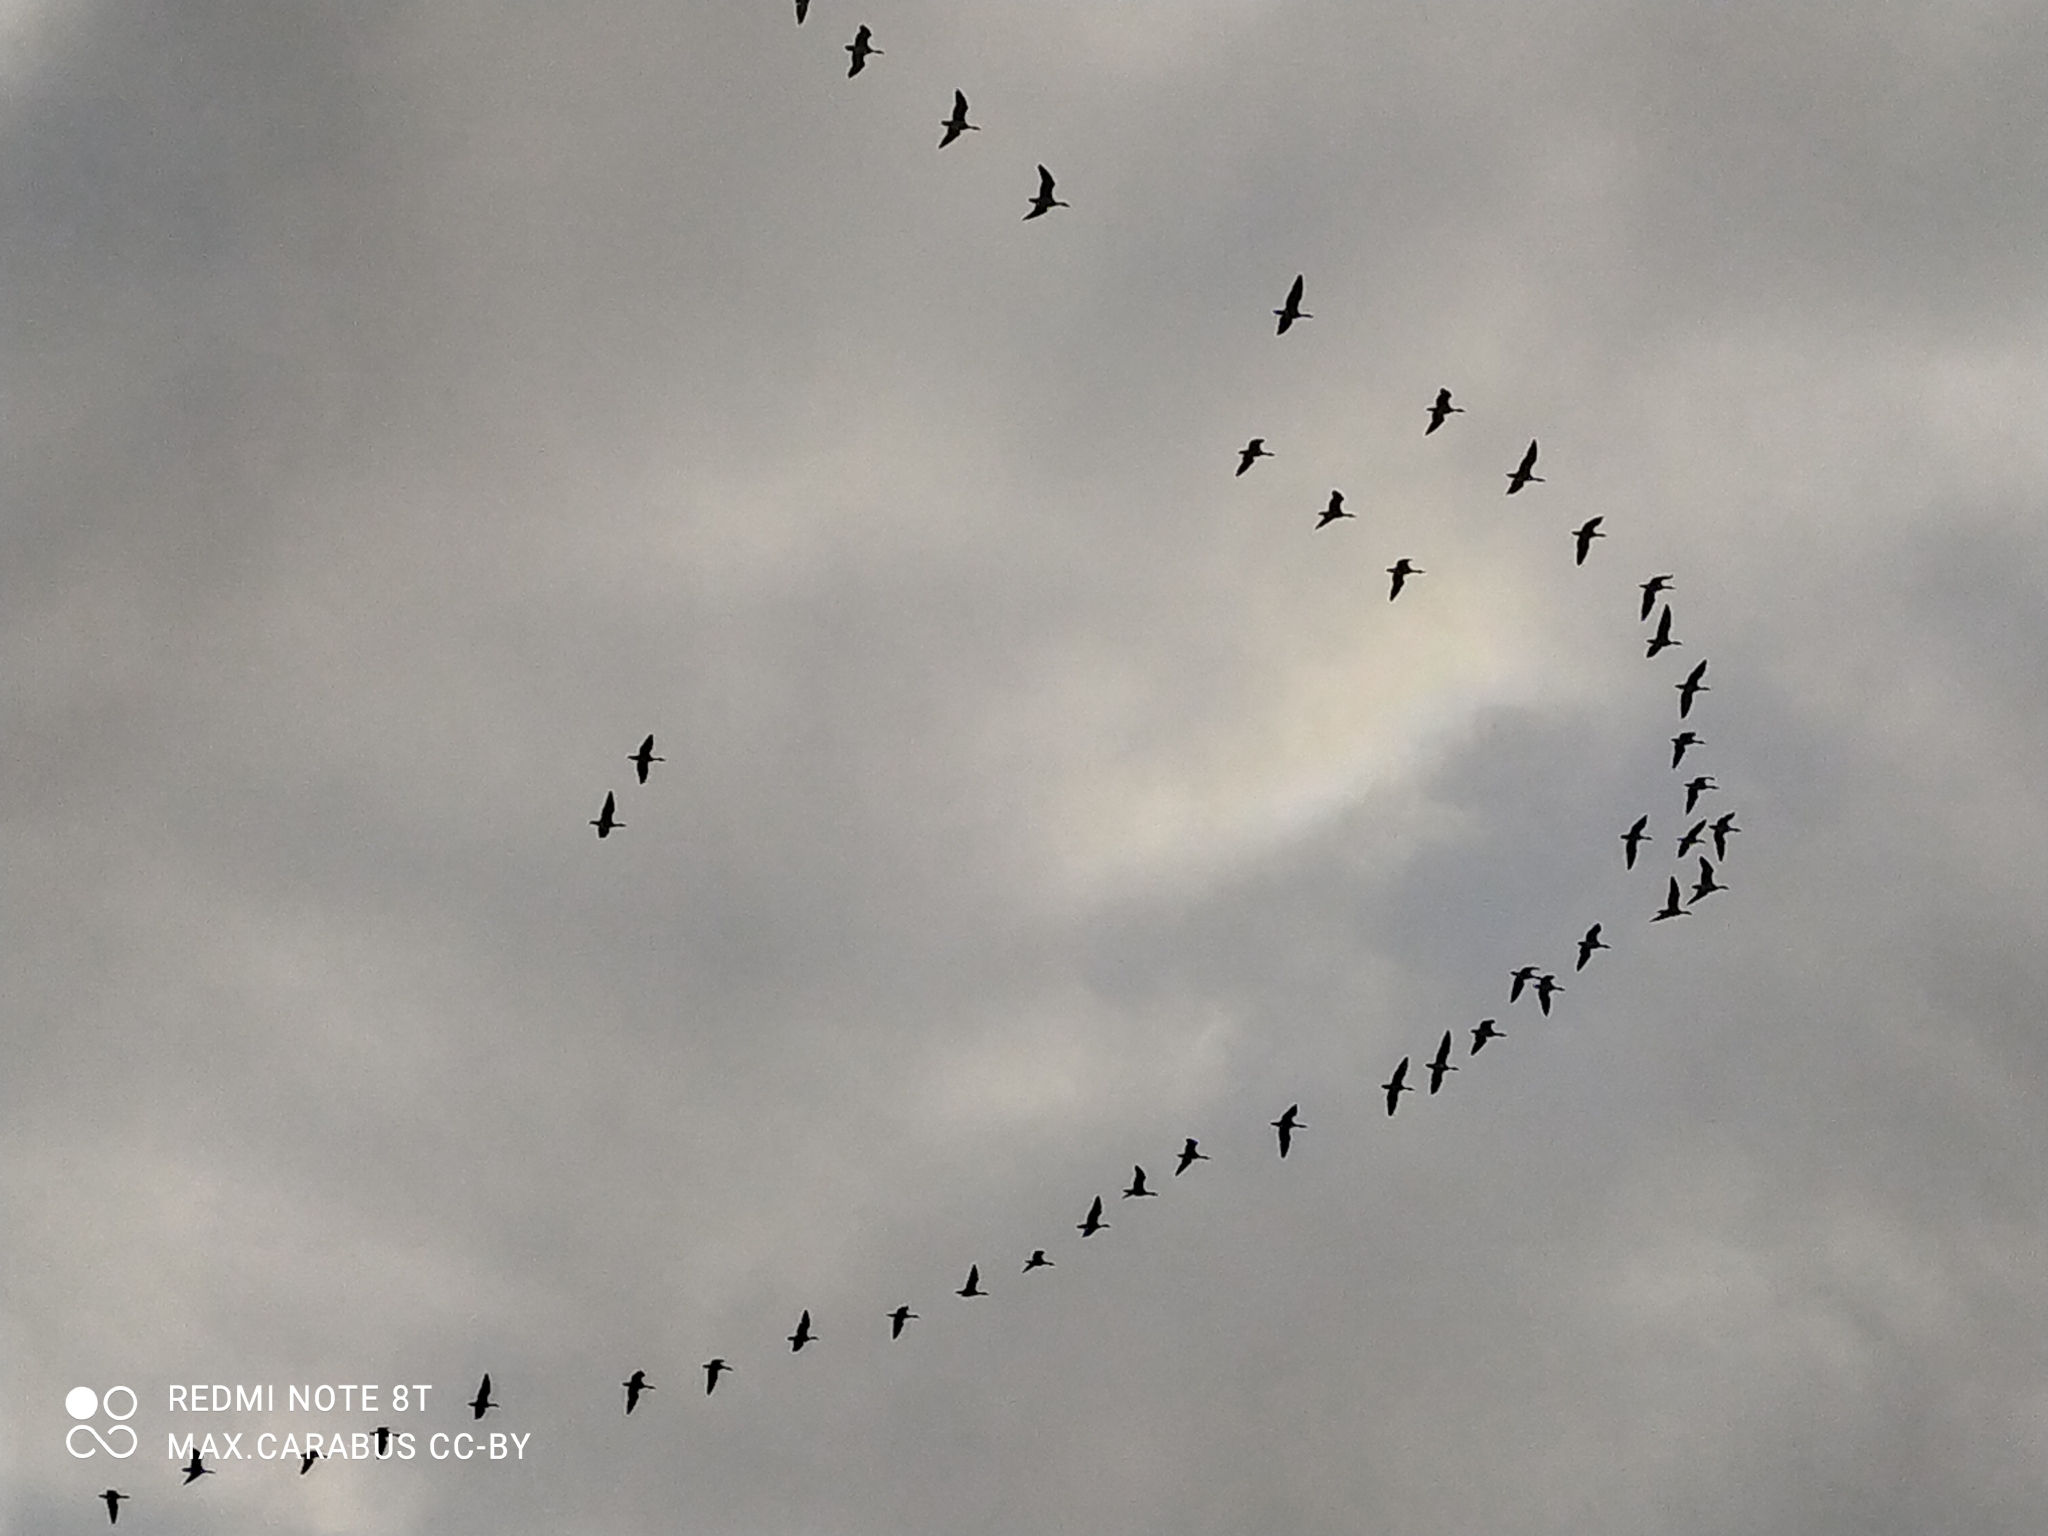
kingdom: Animalia
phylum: Chordata
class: Aves
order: Suliformes
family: Phalacrocoracidae
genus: Phalacrocorax
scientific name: Phalacrocorax carbo
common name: Great cormorant
